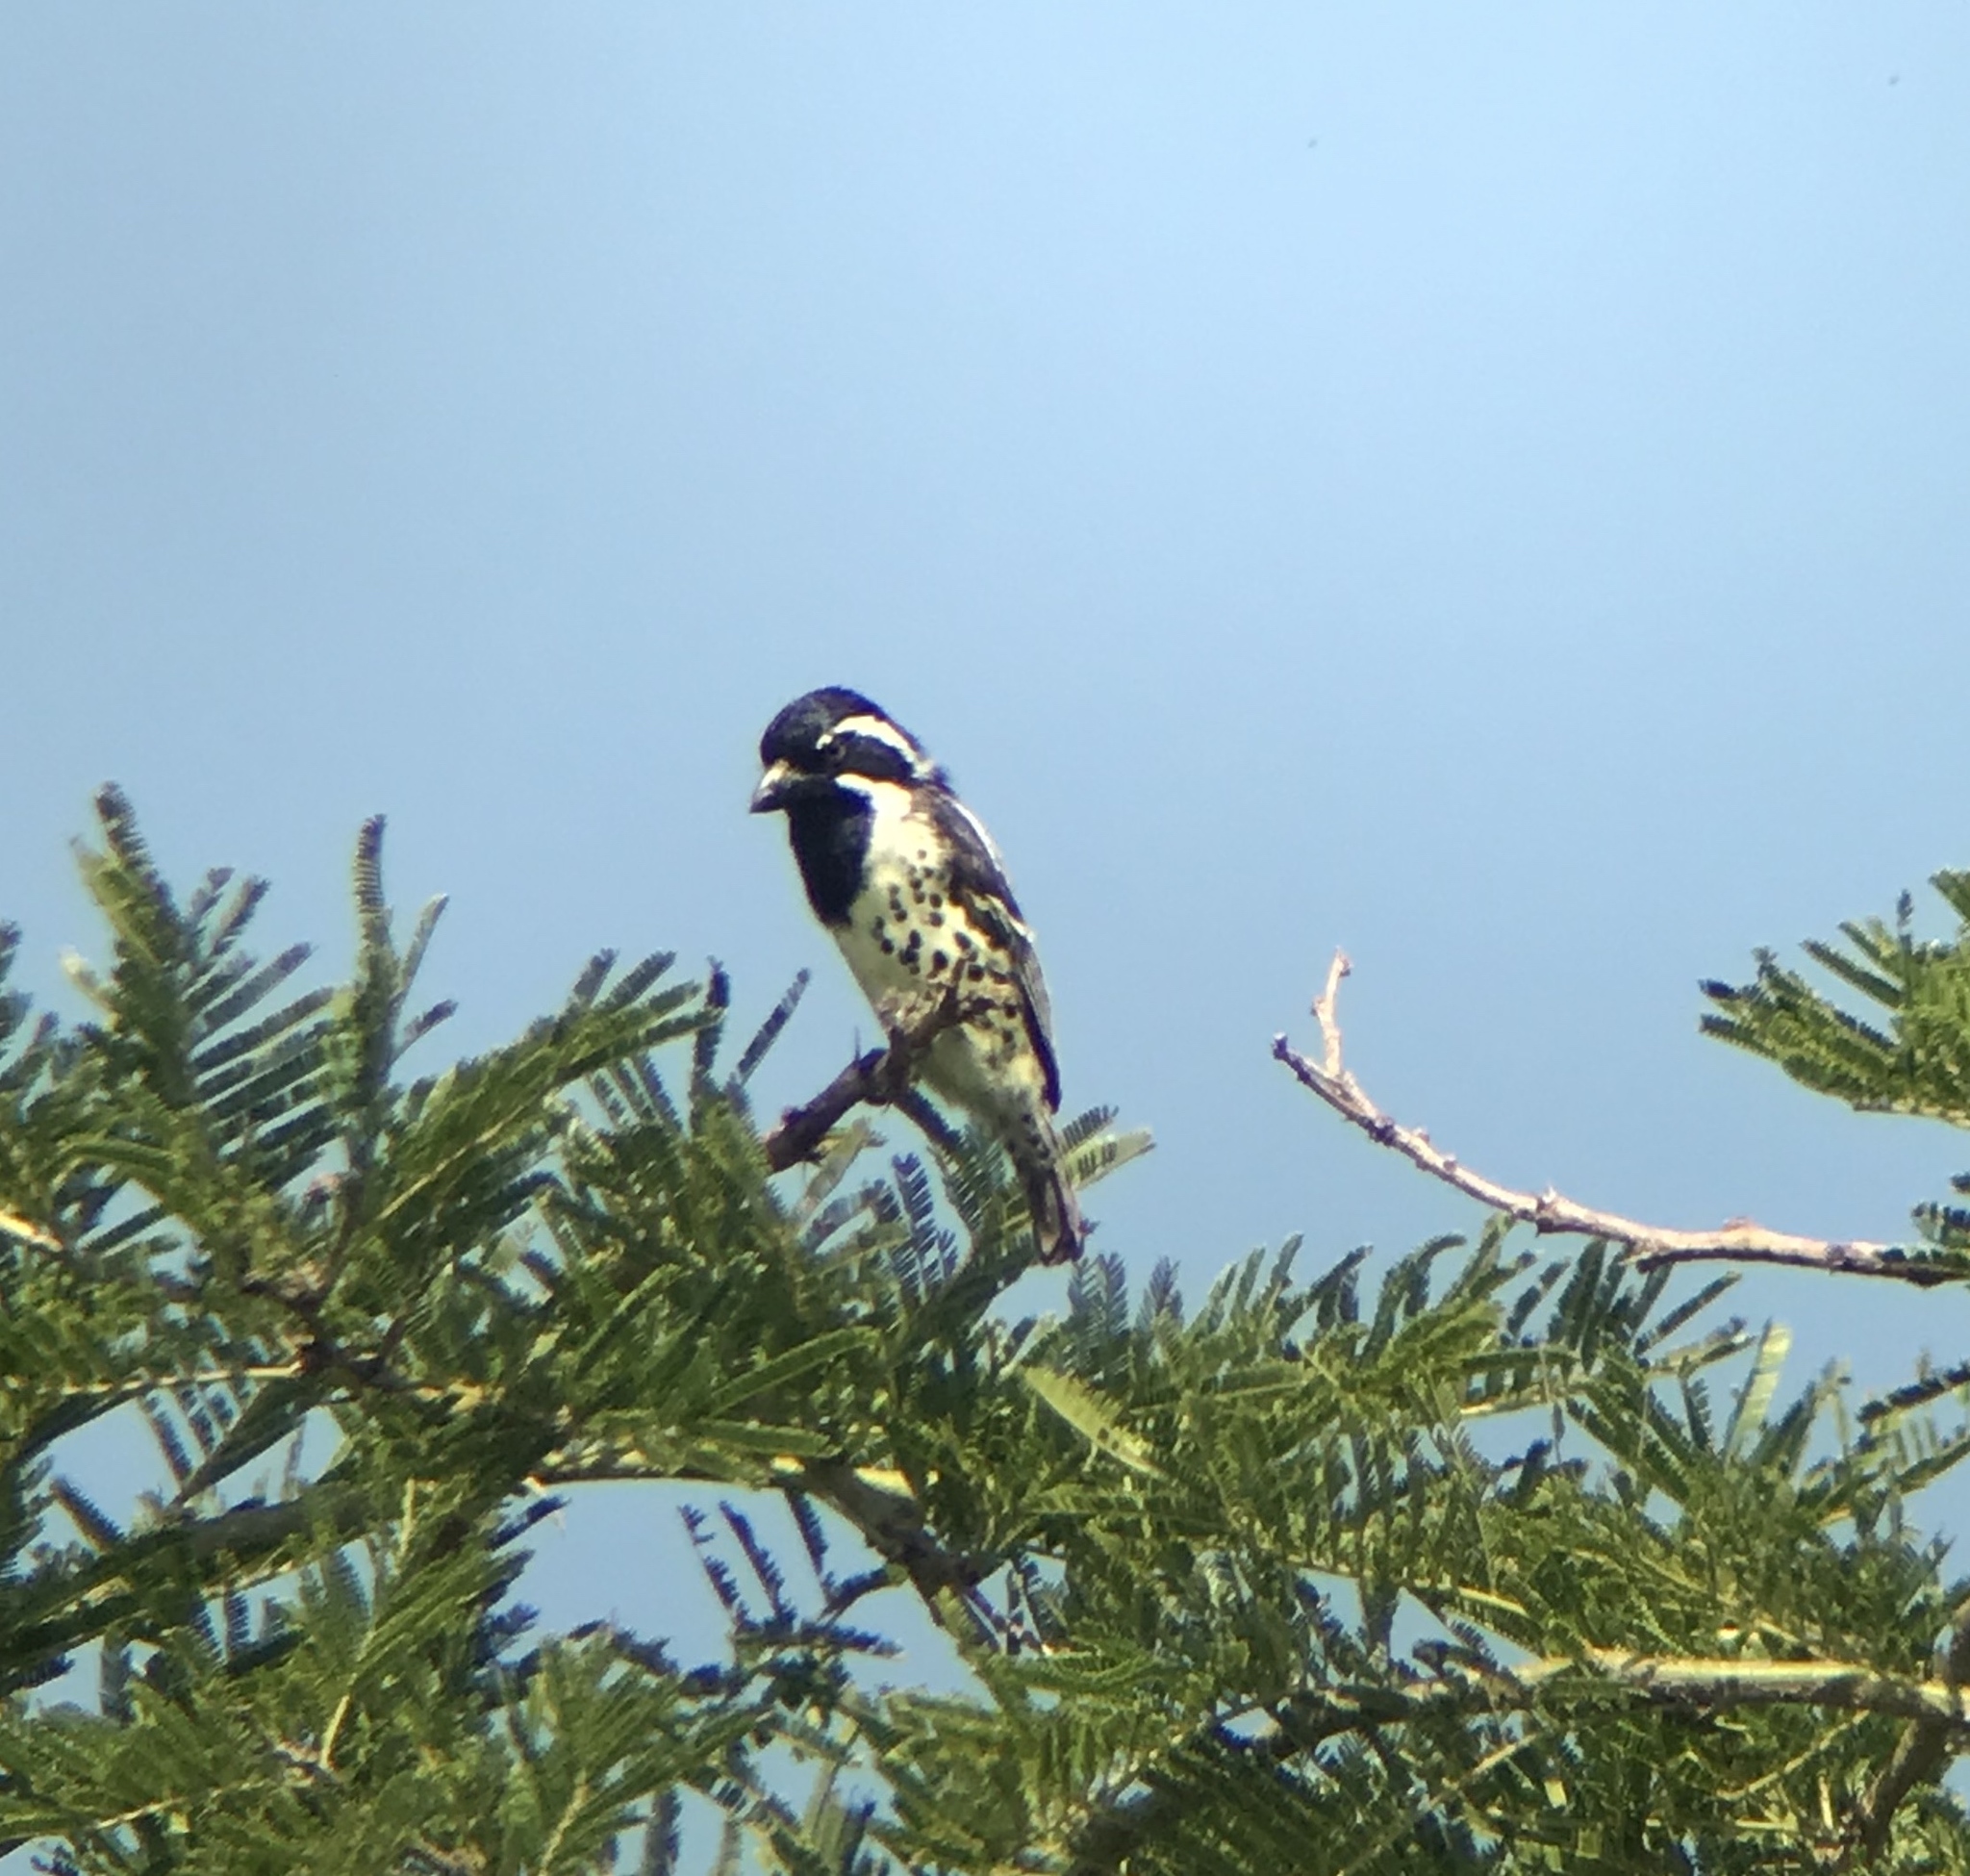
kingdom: Animalia
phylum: Chordata
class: Aves
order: Piciformes
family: Lybiidae
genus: Tricholaema
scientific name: Tricholaema lacrymosa
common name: Spot-flanked barbet
